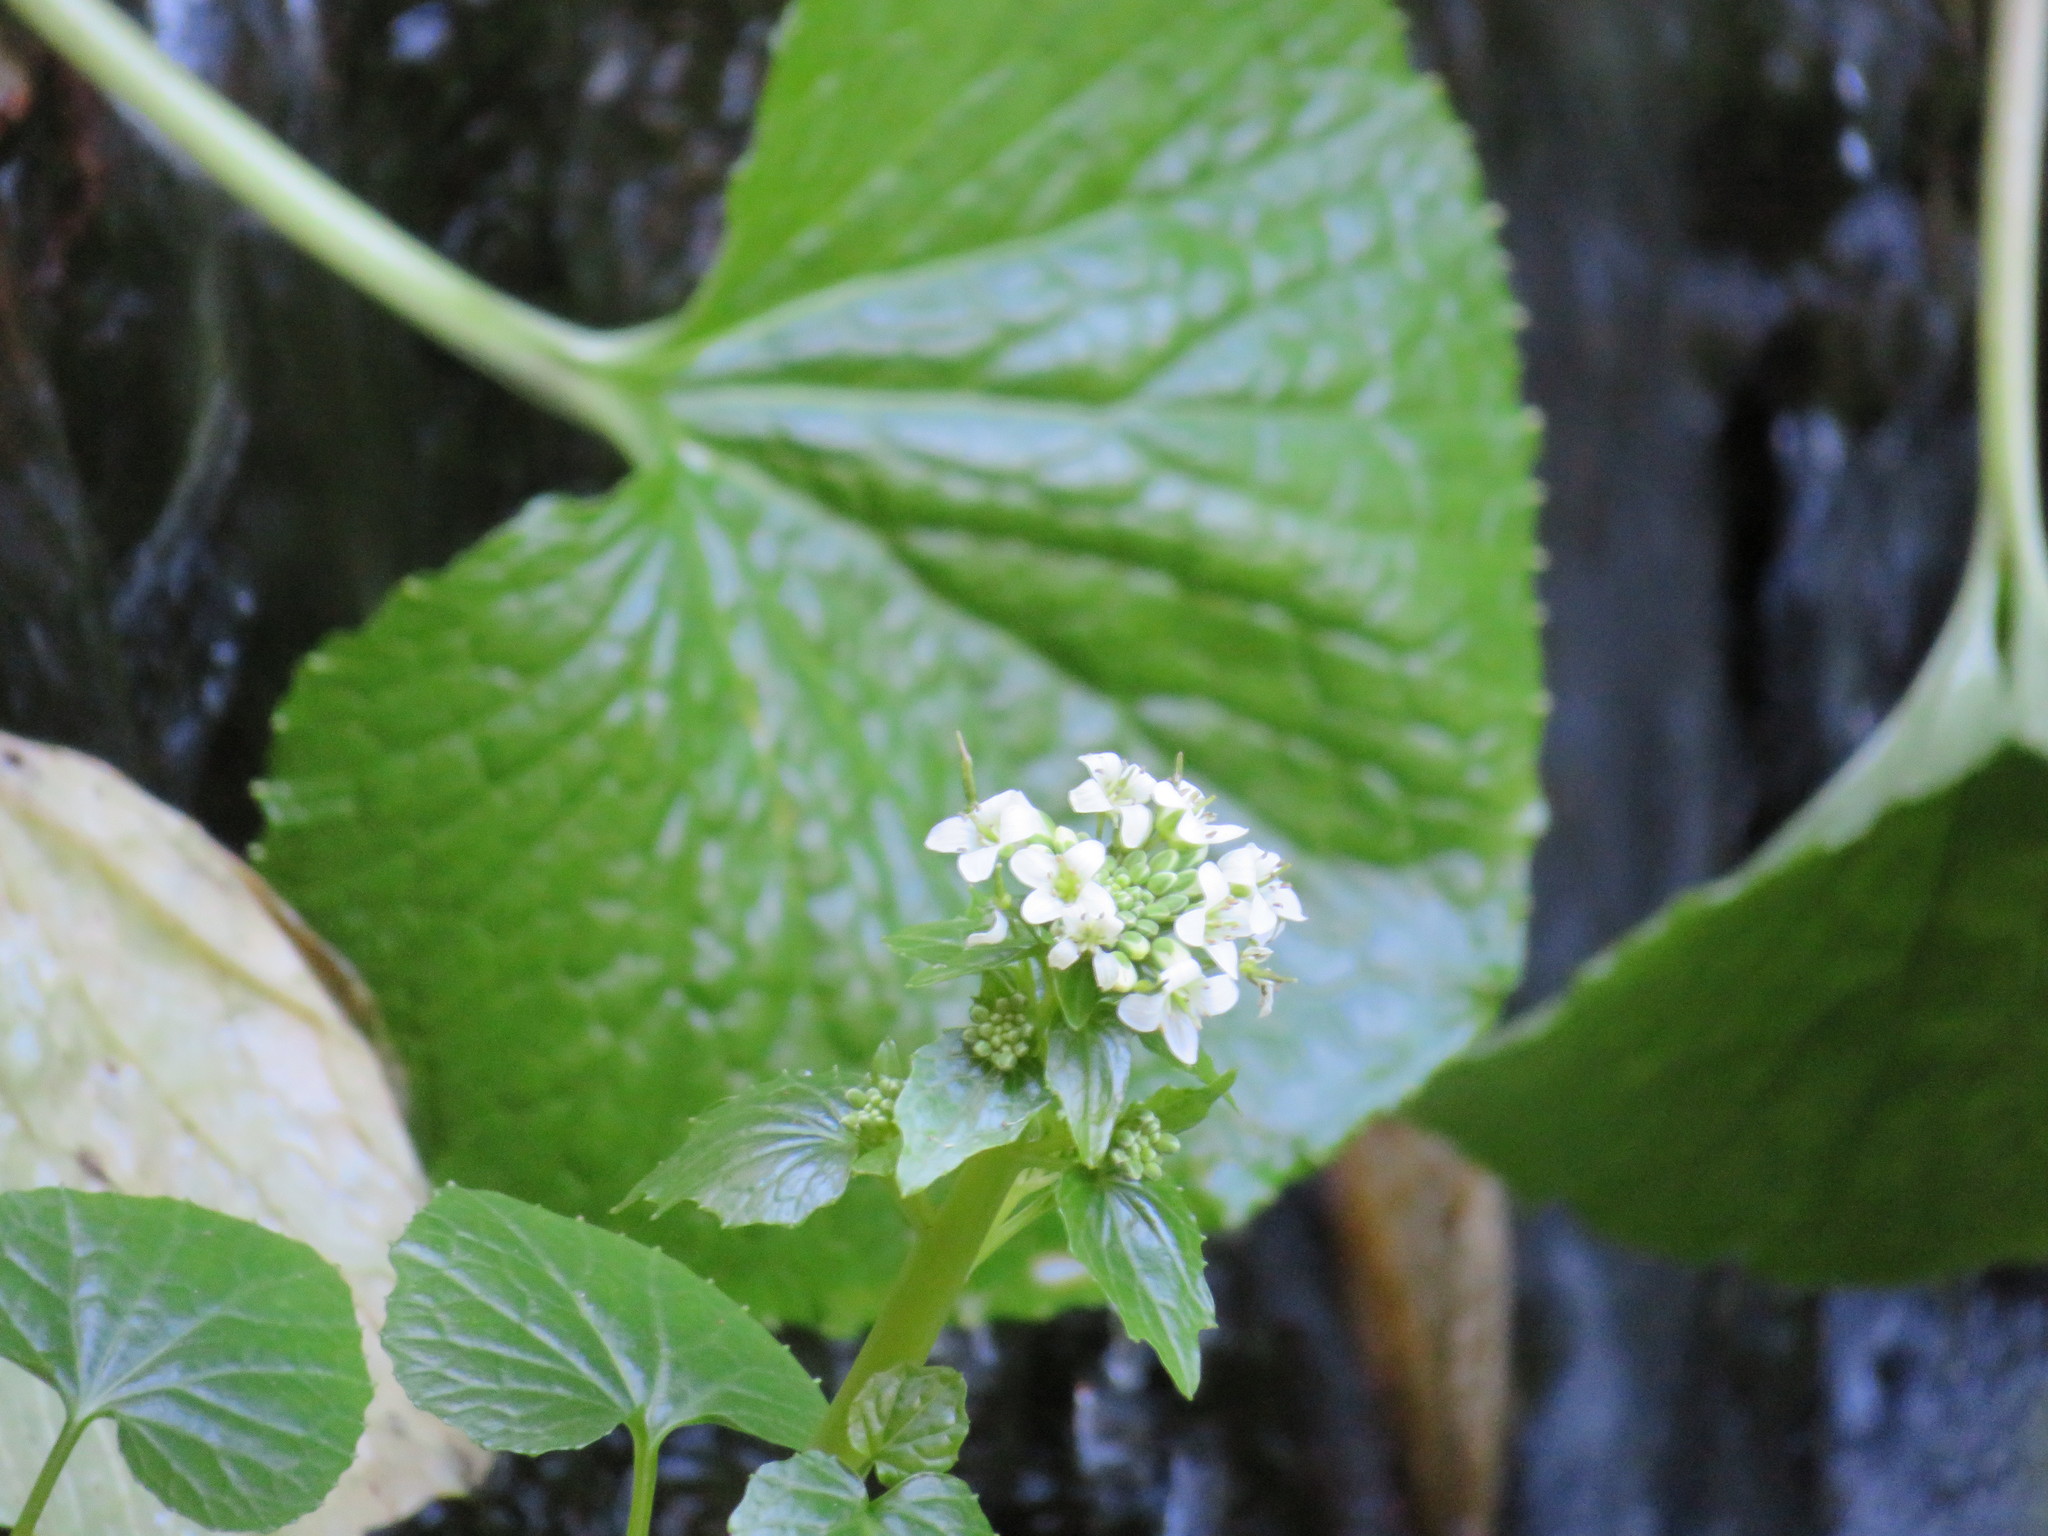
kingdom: Plantae
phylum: Tracheophyta
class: Magnoliopsida
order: Brassicales
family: Brassicaceae
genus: Eutrema
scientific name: Eutrema japonicum
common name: Japanese-horseradish
